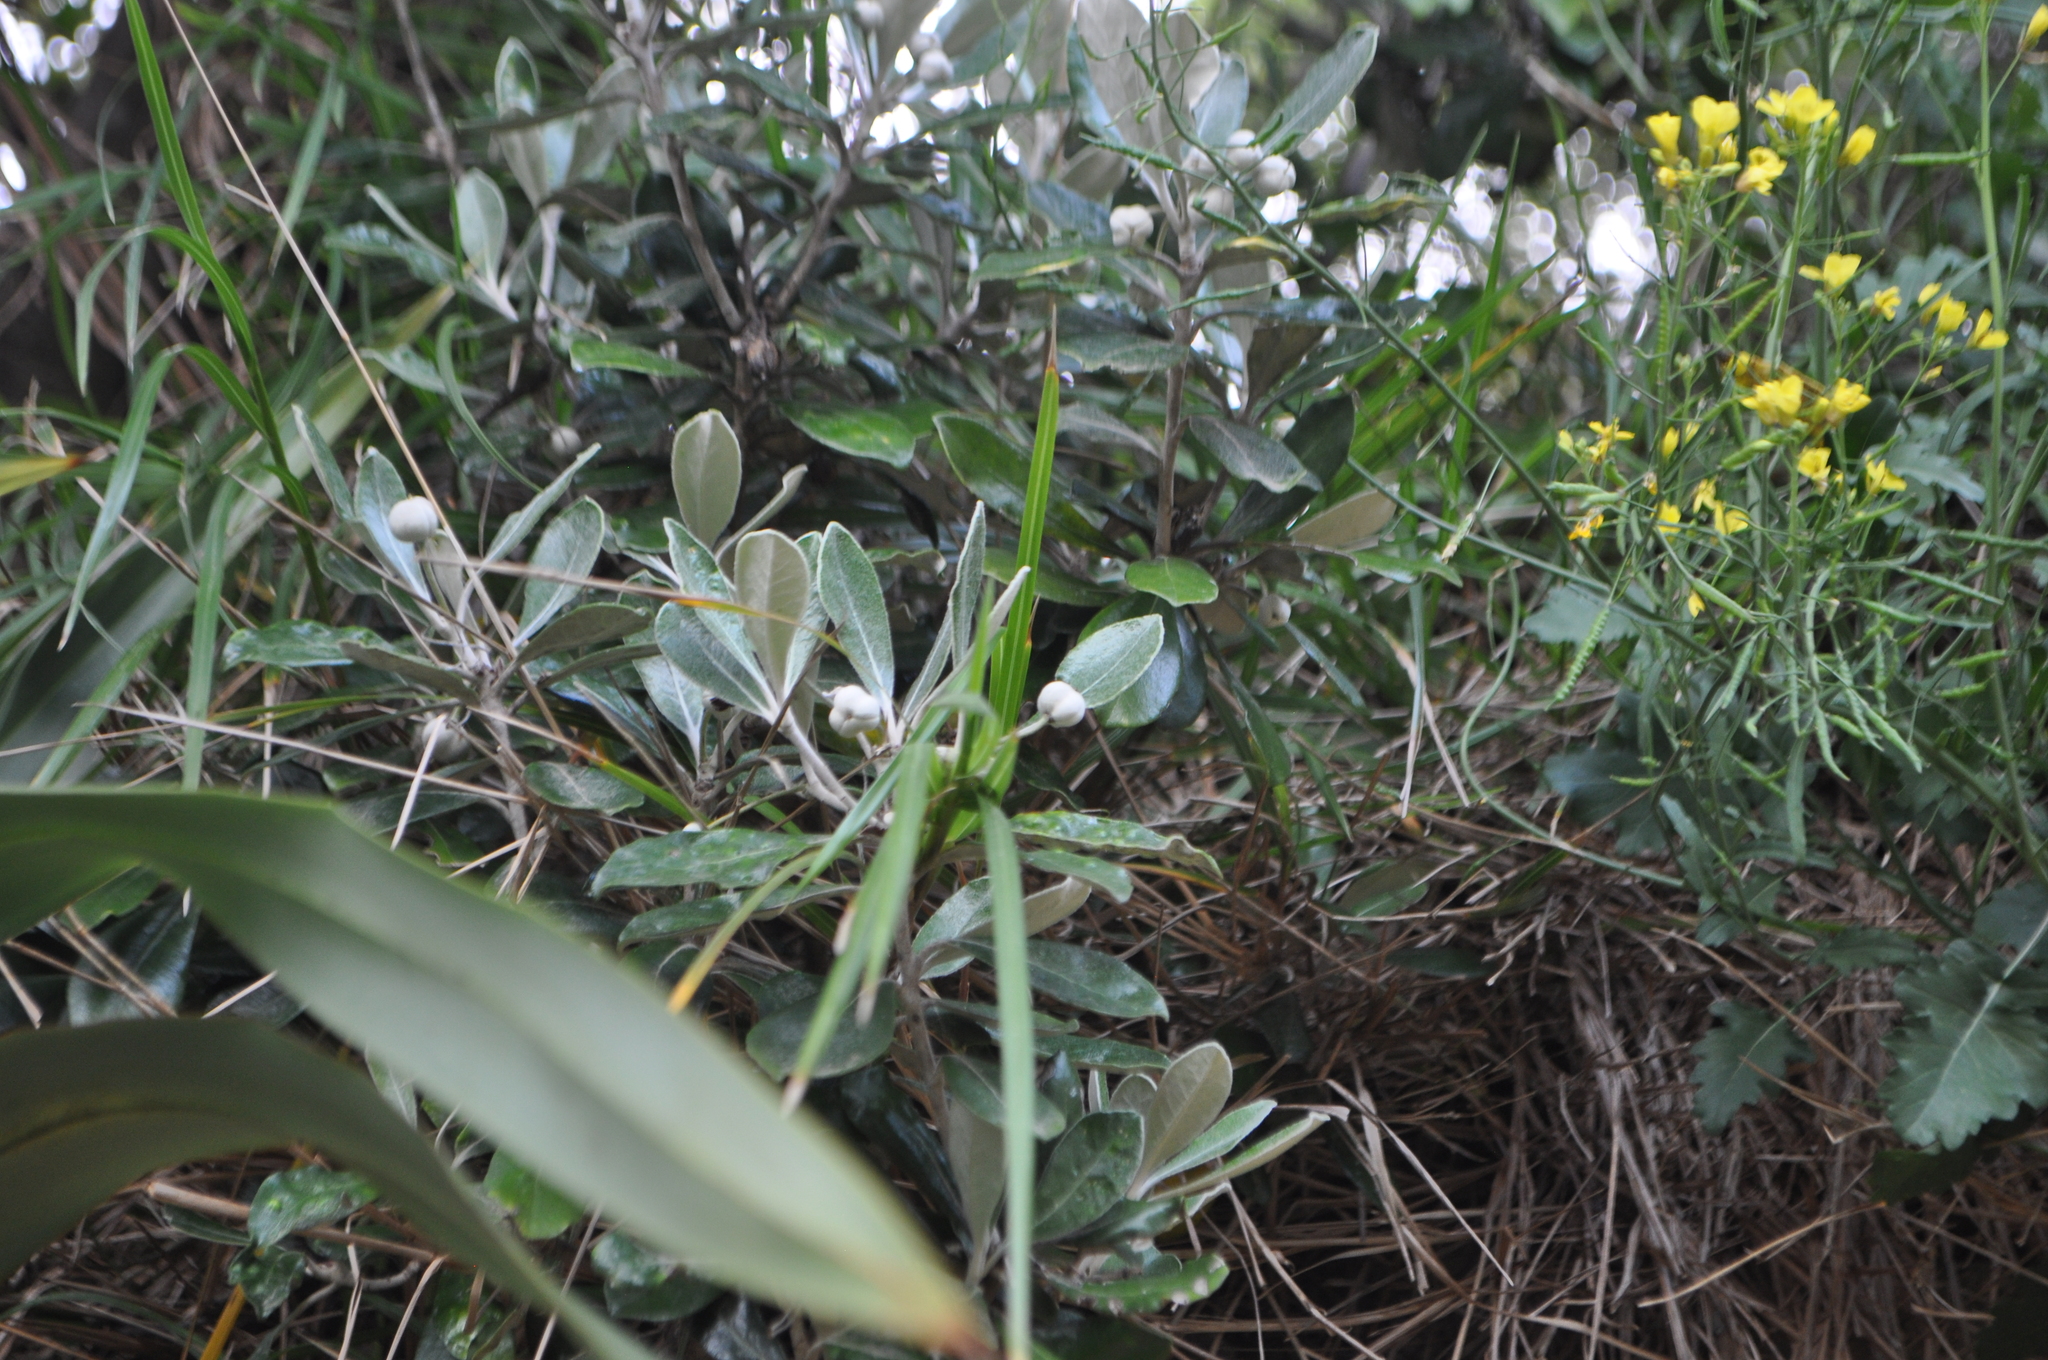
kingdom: Plantae
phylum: Tracheophyta
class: Magnoliopsida
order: Apiales
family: Pittosporaceae
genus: Pittosporum
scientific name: Pittosporum ralphii
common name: Ralph's desertwillow
